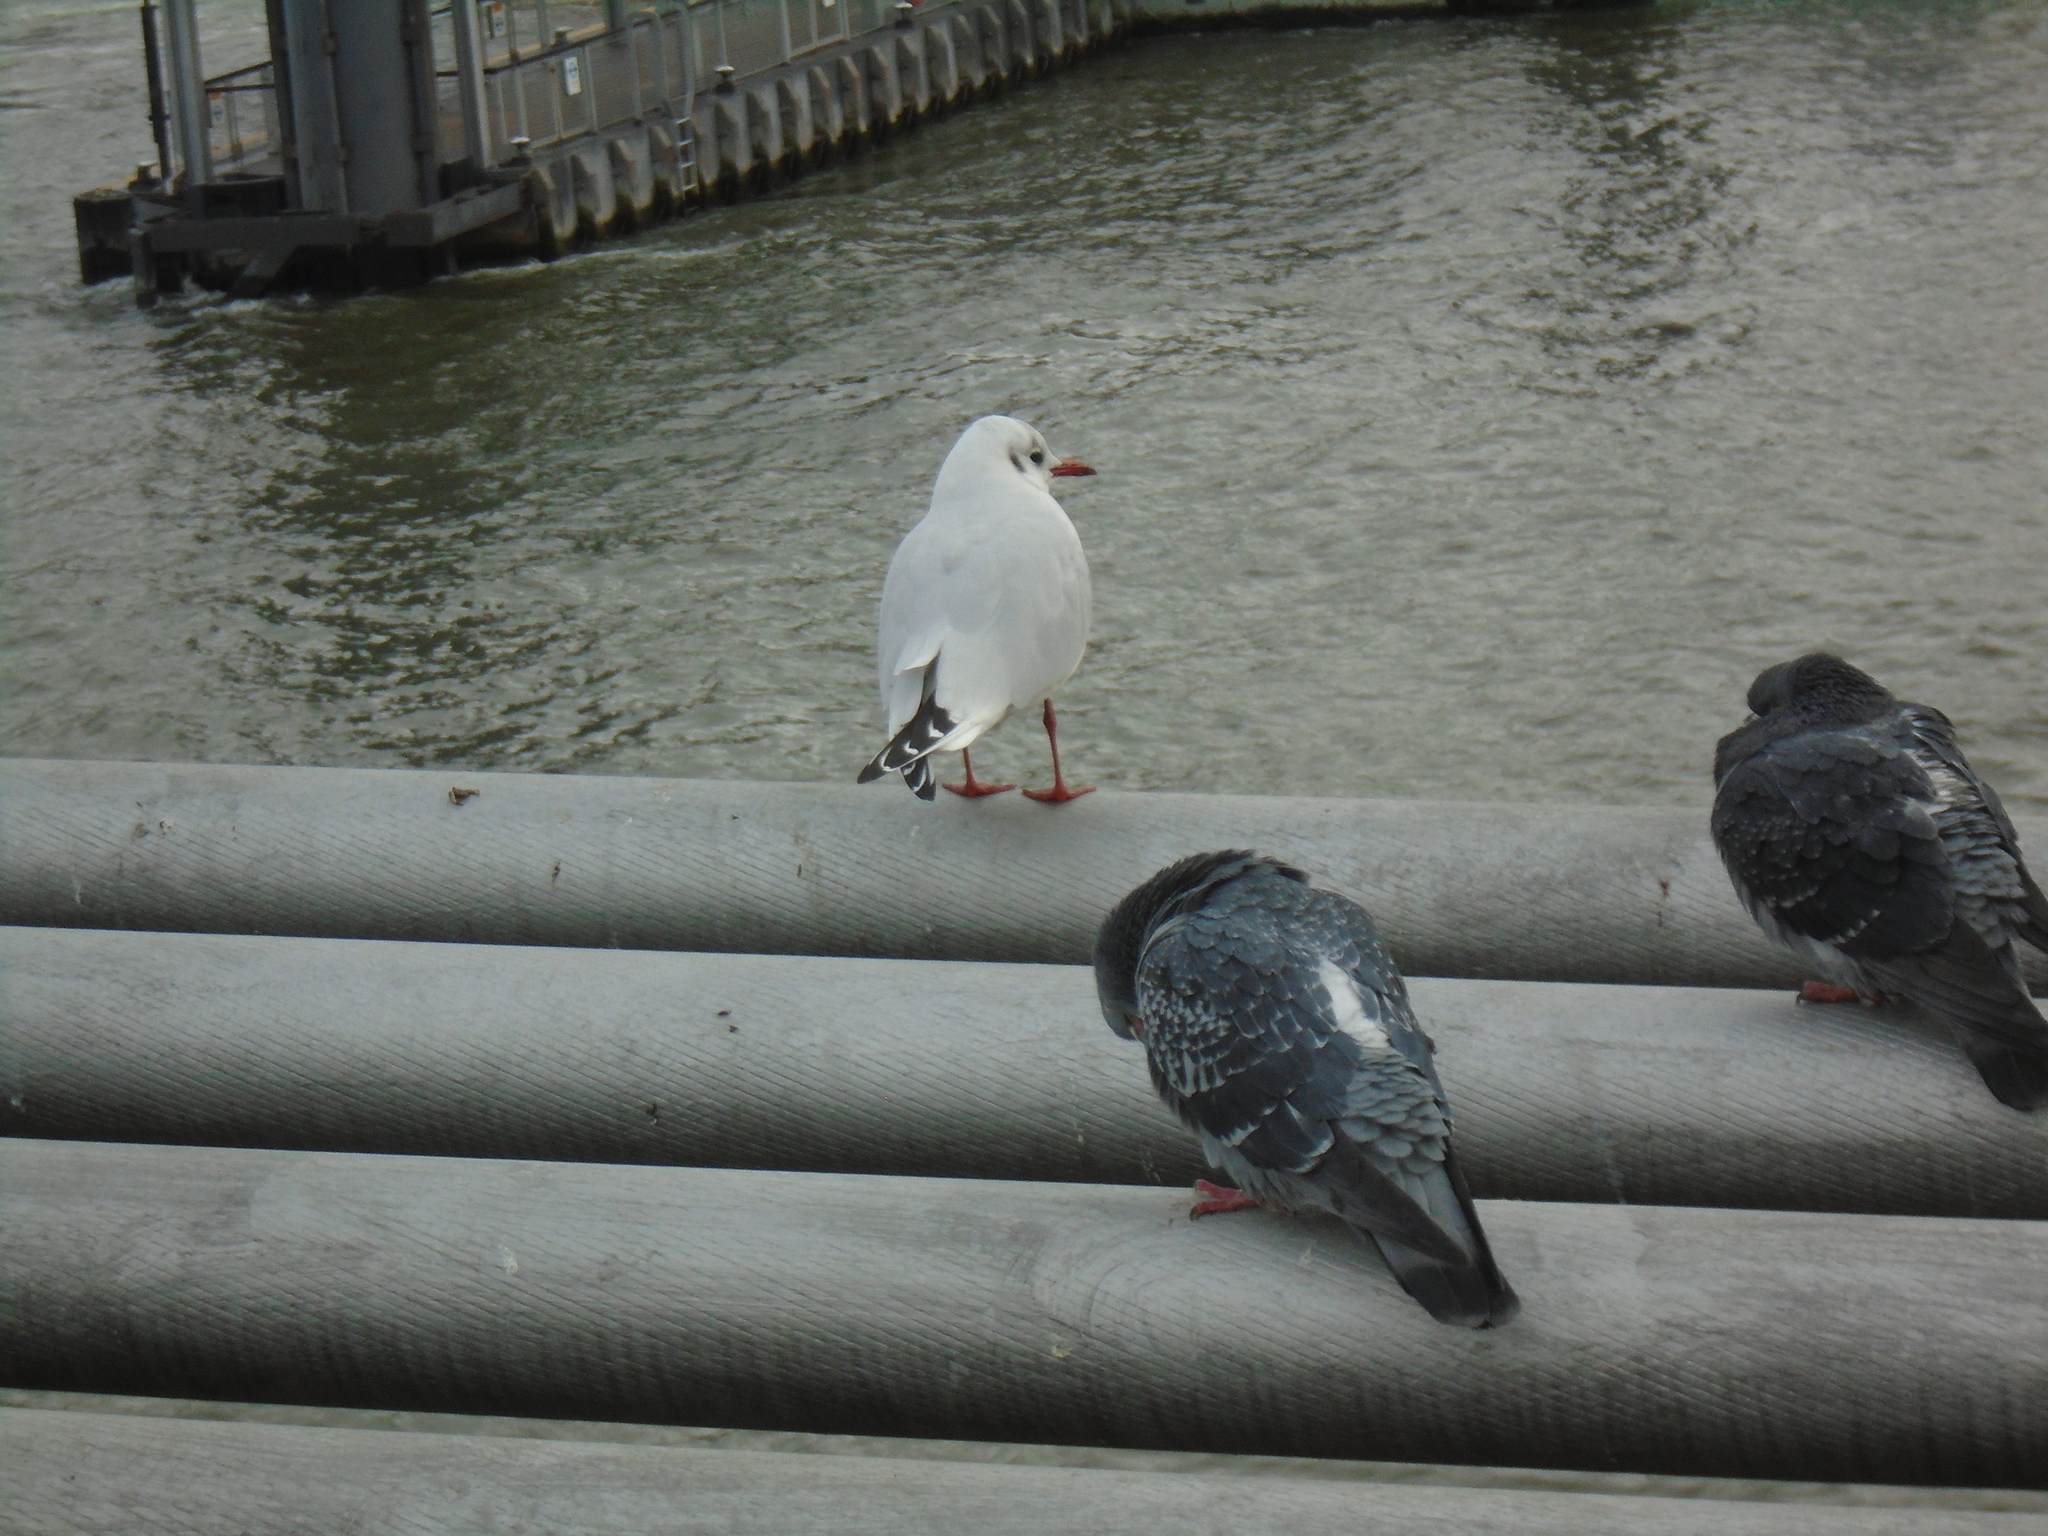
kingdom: Animalia
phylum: Chordata
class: Aves
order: Charadriiformes
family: Laridae
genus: Chroicocephalus
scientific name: Chroicocephalus ridibundus
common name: Black-headed gull
